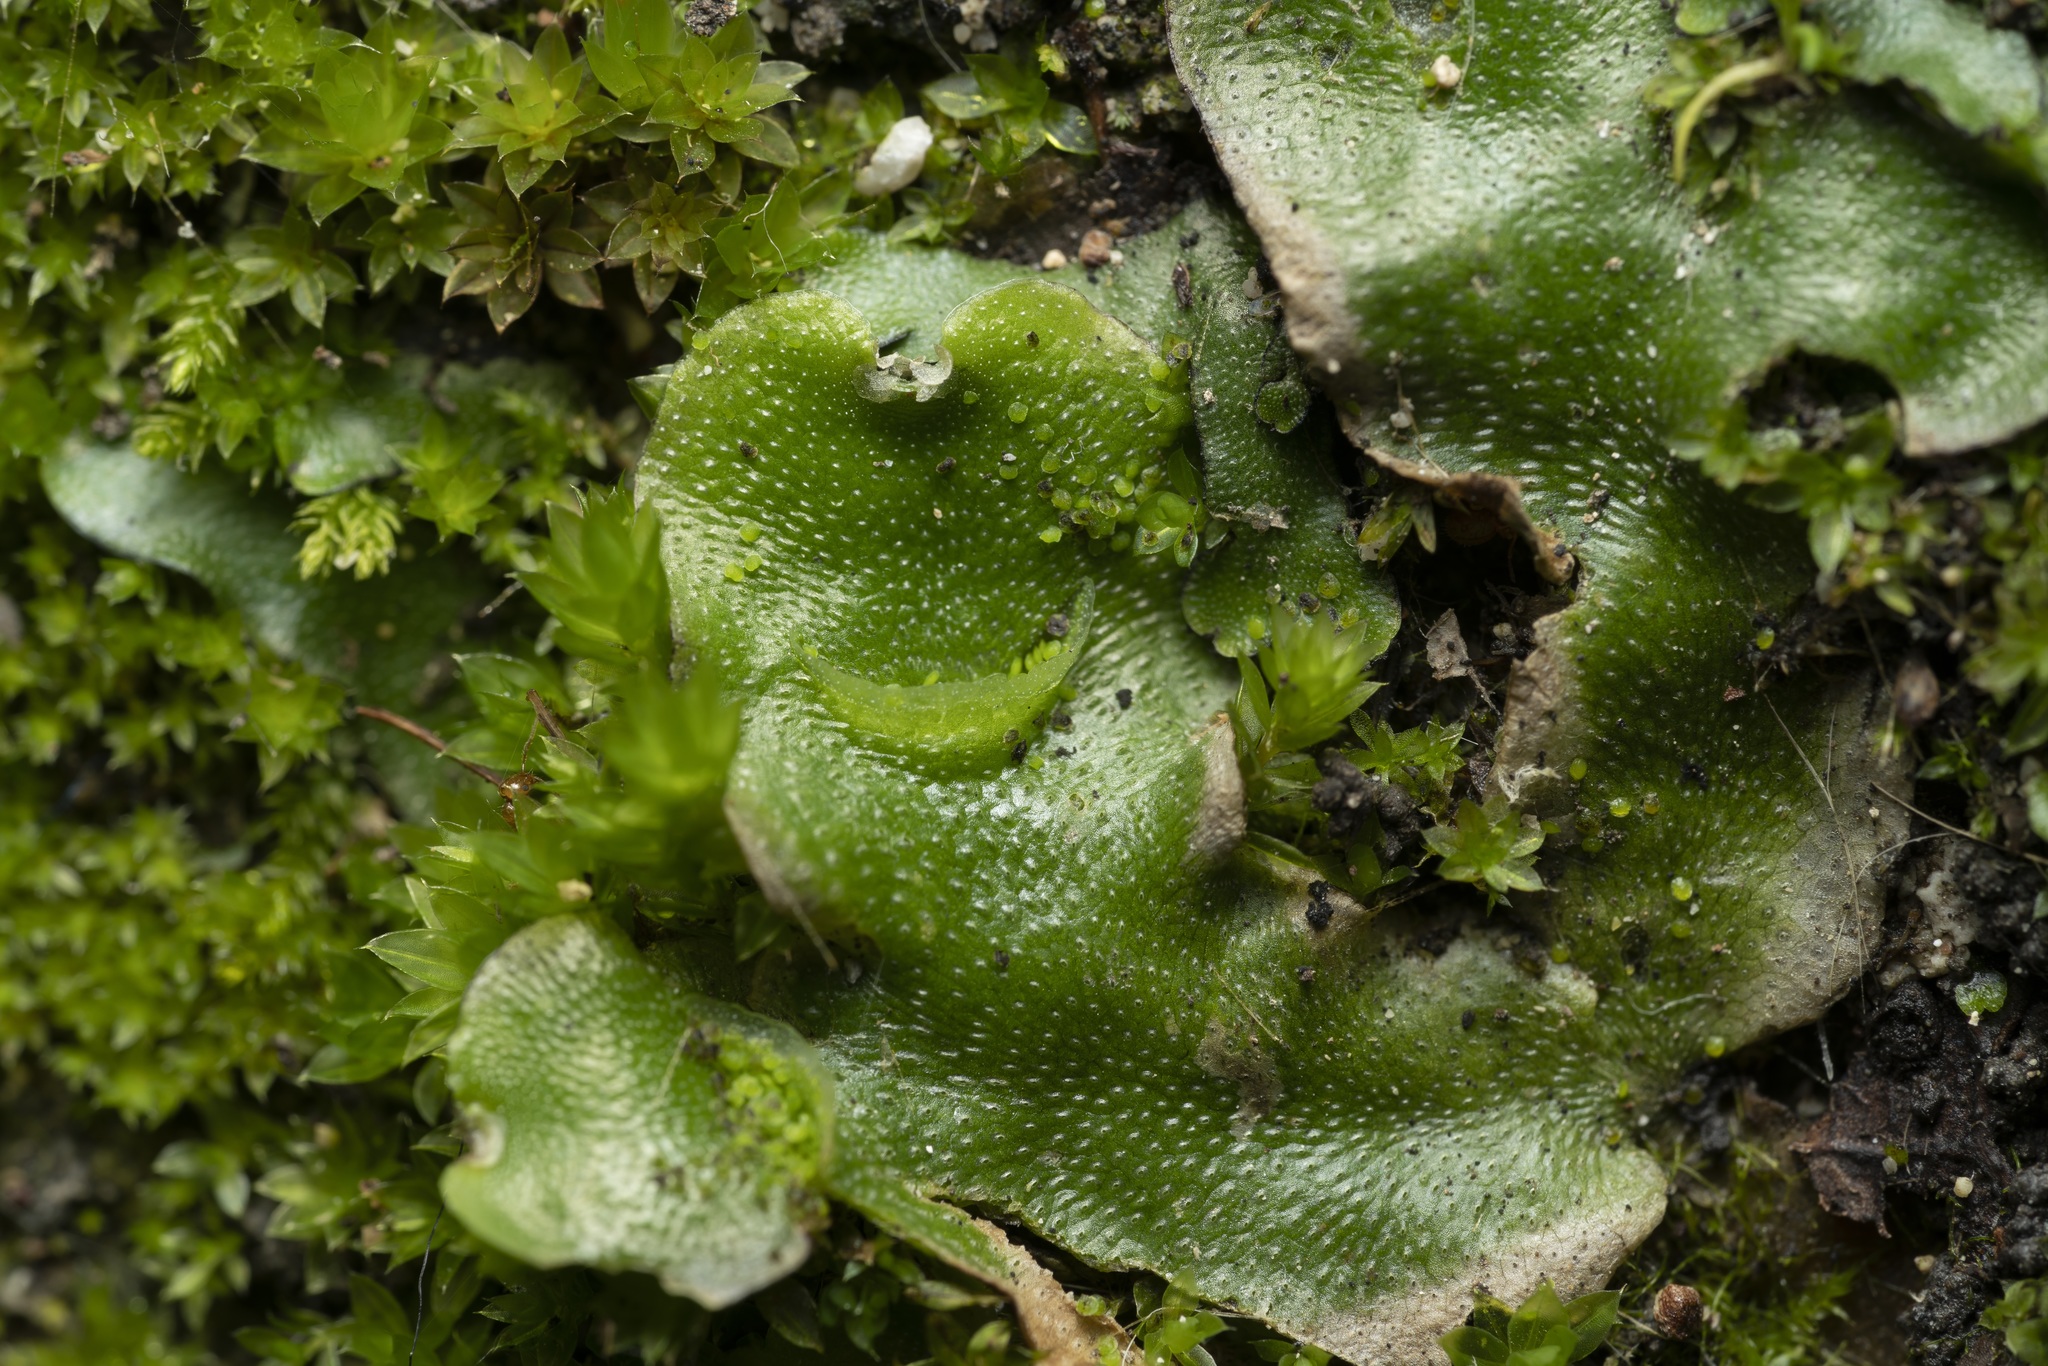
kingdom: Plantae
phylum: Marchantiophyta
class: Marchantiopsida
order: Lunulariales
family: Lunulariaceae
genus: Lunularia
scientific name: Lunularia cruciata
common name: Crescent-cup liverwort
